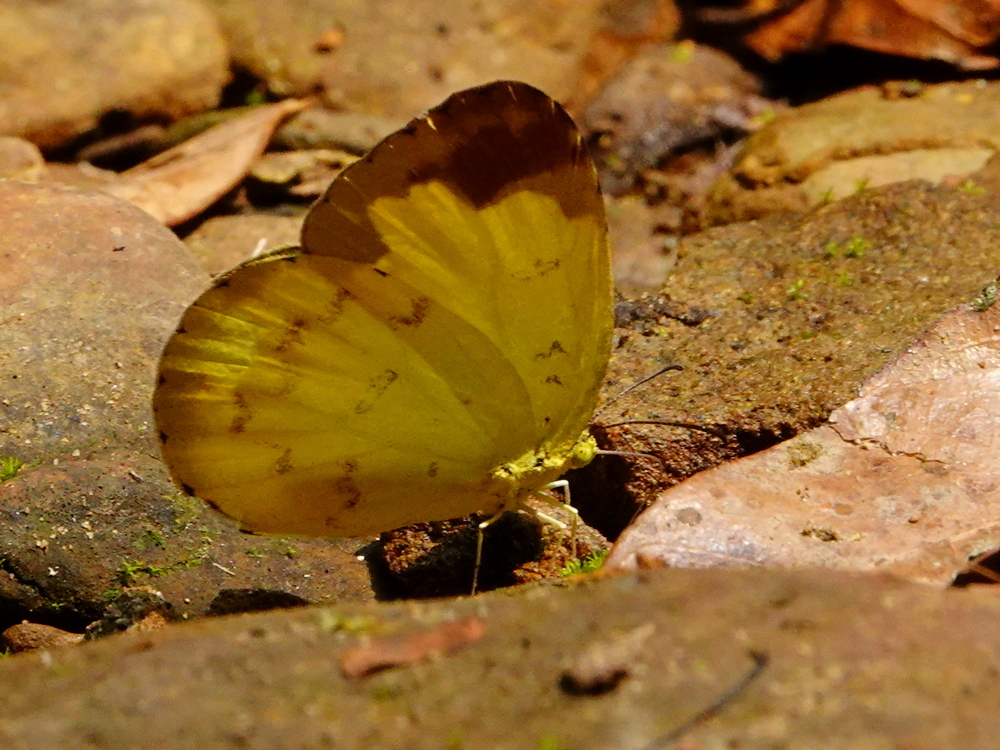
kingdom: Animalia
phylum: Arthropoda
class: Insecta
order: Lepidoptera
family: Pieridae
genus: Eurema
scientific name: Eurema blanda
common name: Three-spot grass yellow
